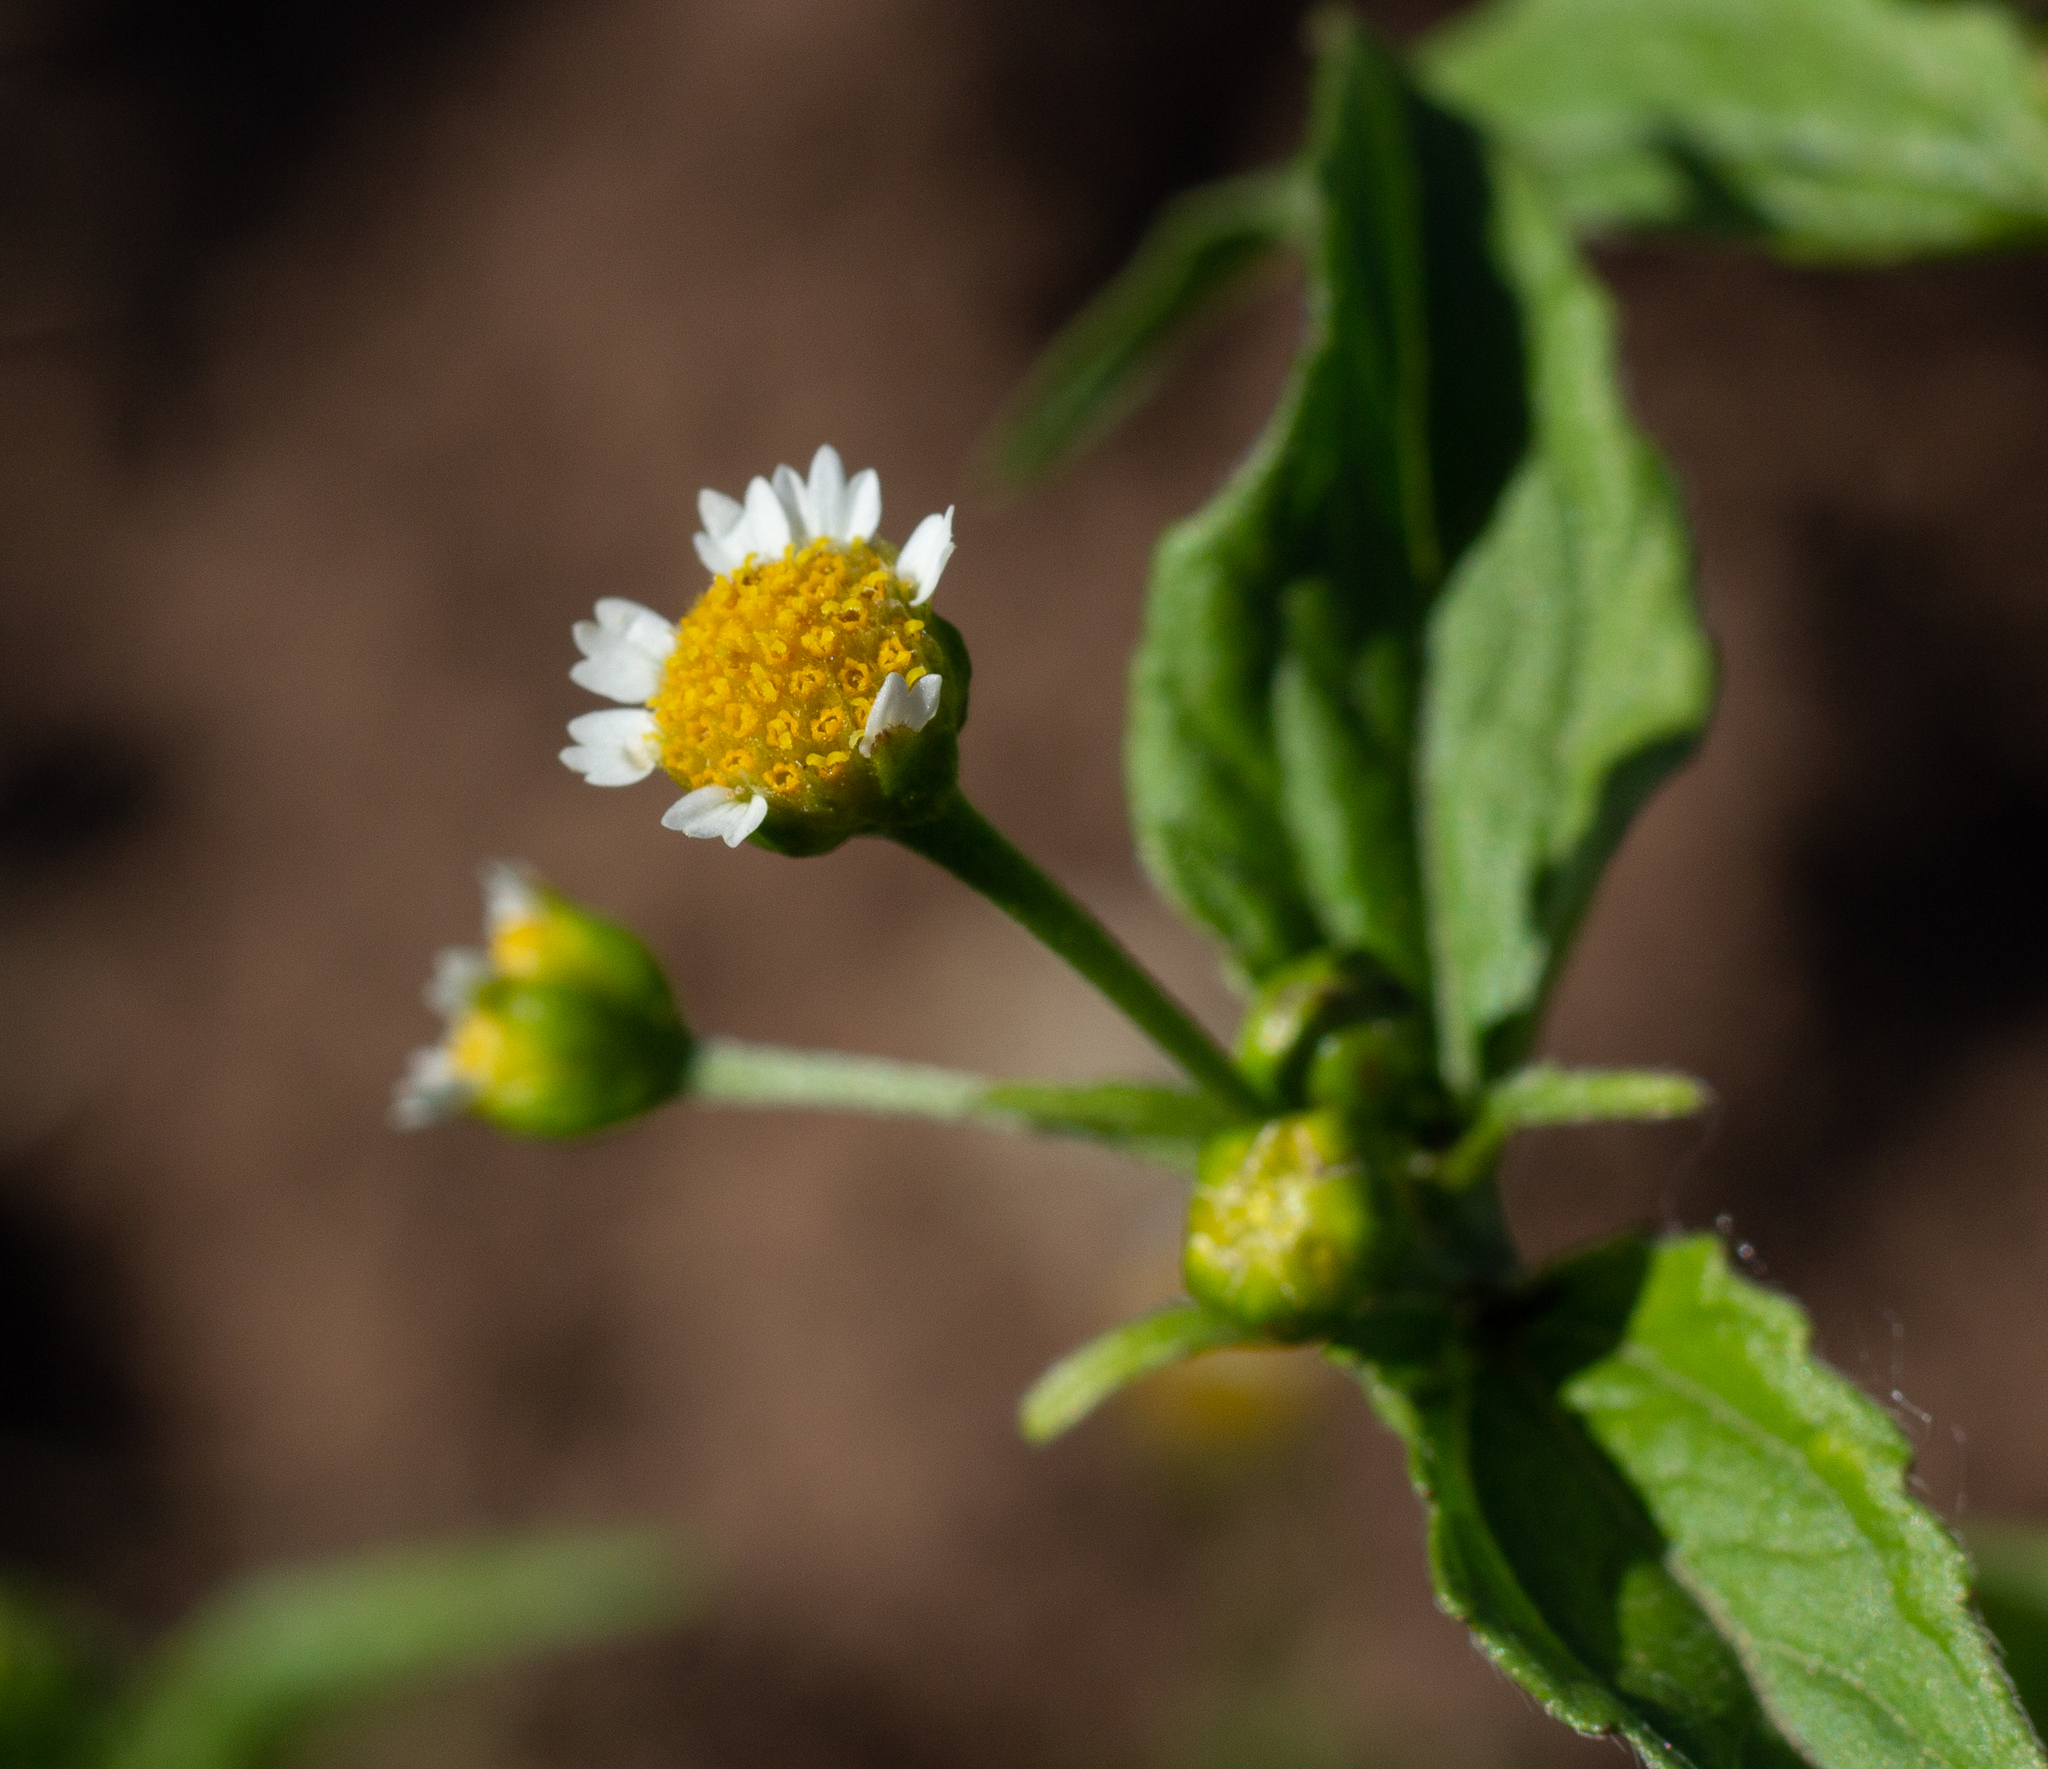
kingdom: Plantae
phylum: Tracheophyta
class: Magnoliopsida
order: Asterales
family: Asteraceae
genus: Galinsoga
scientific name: Galinsoga parviflora
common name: Gallant soldier
